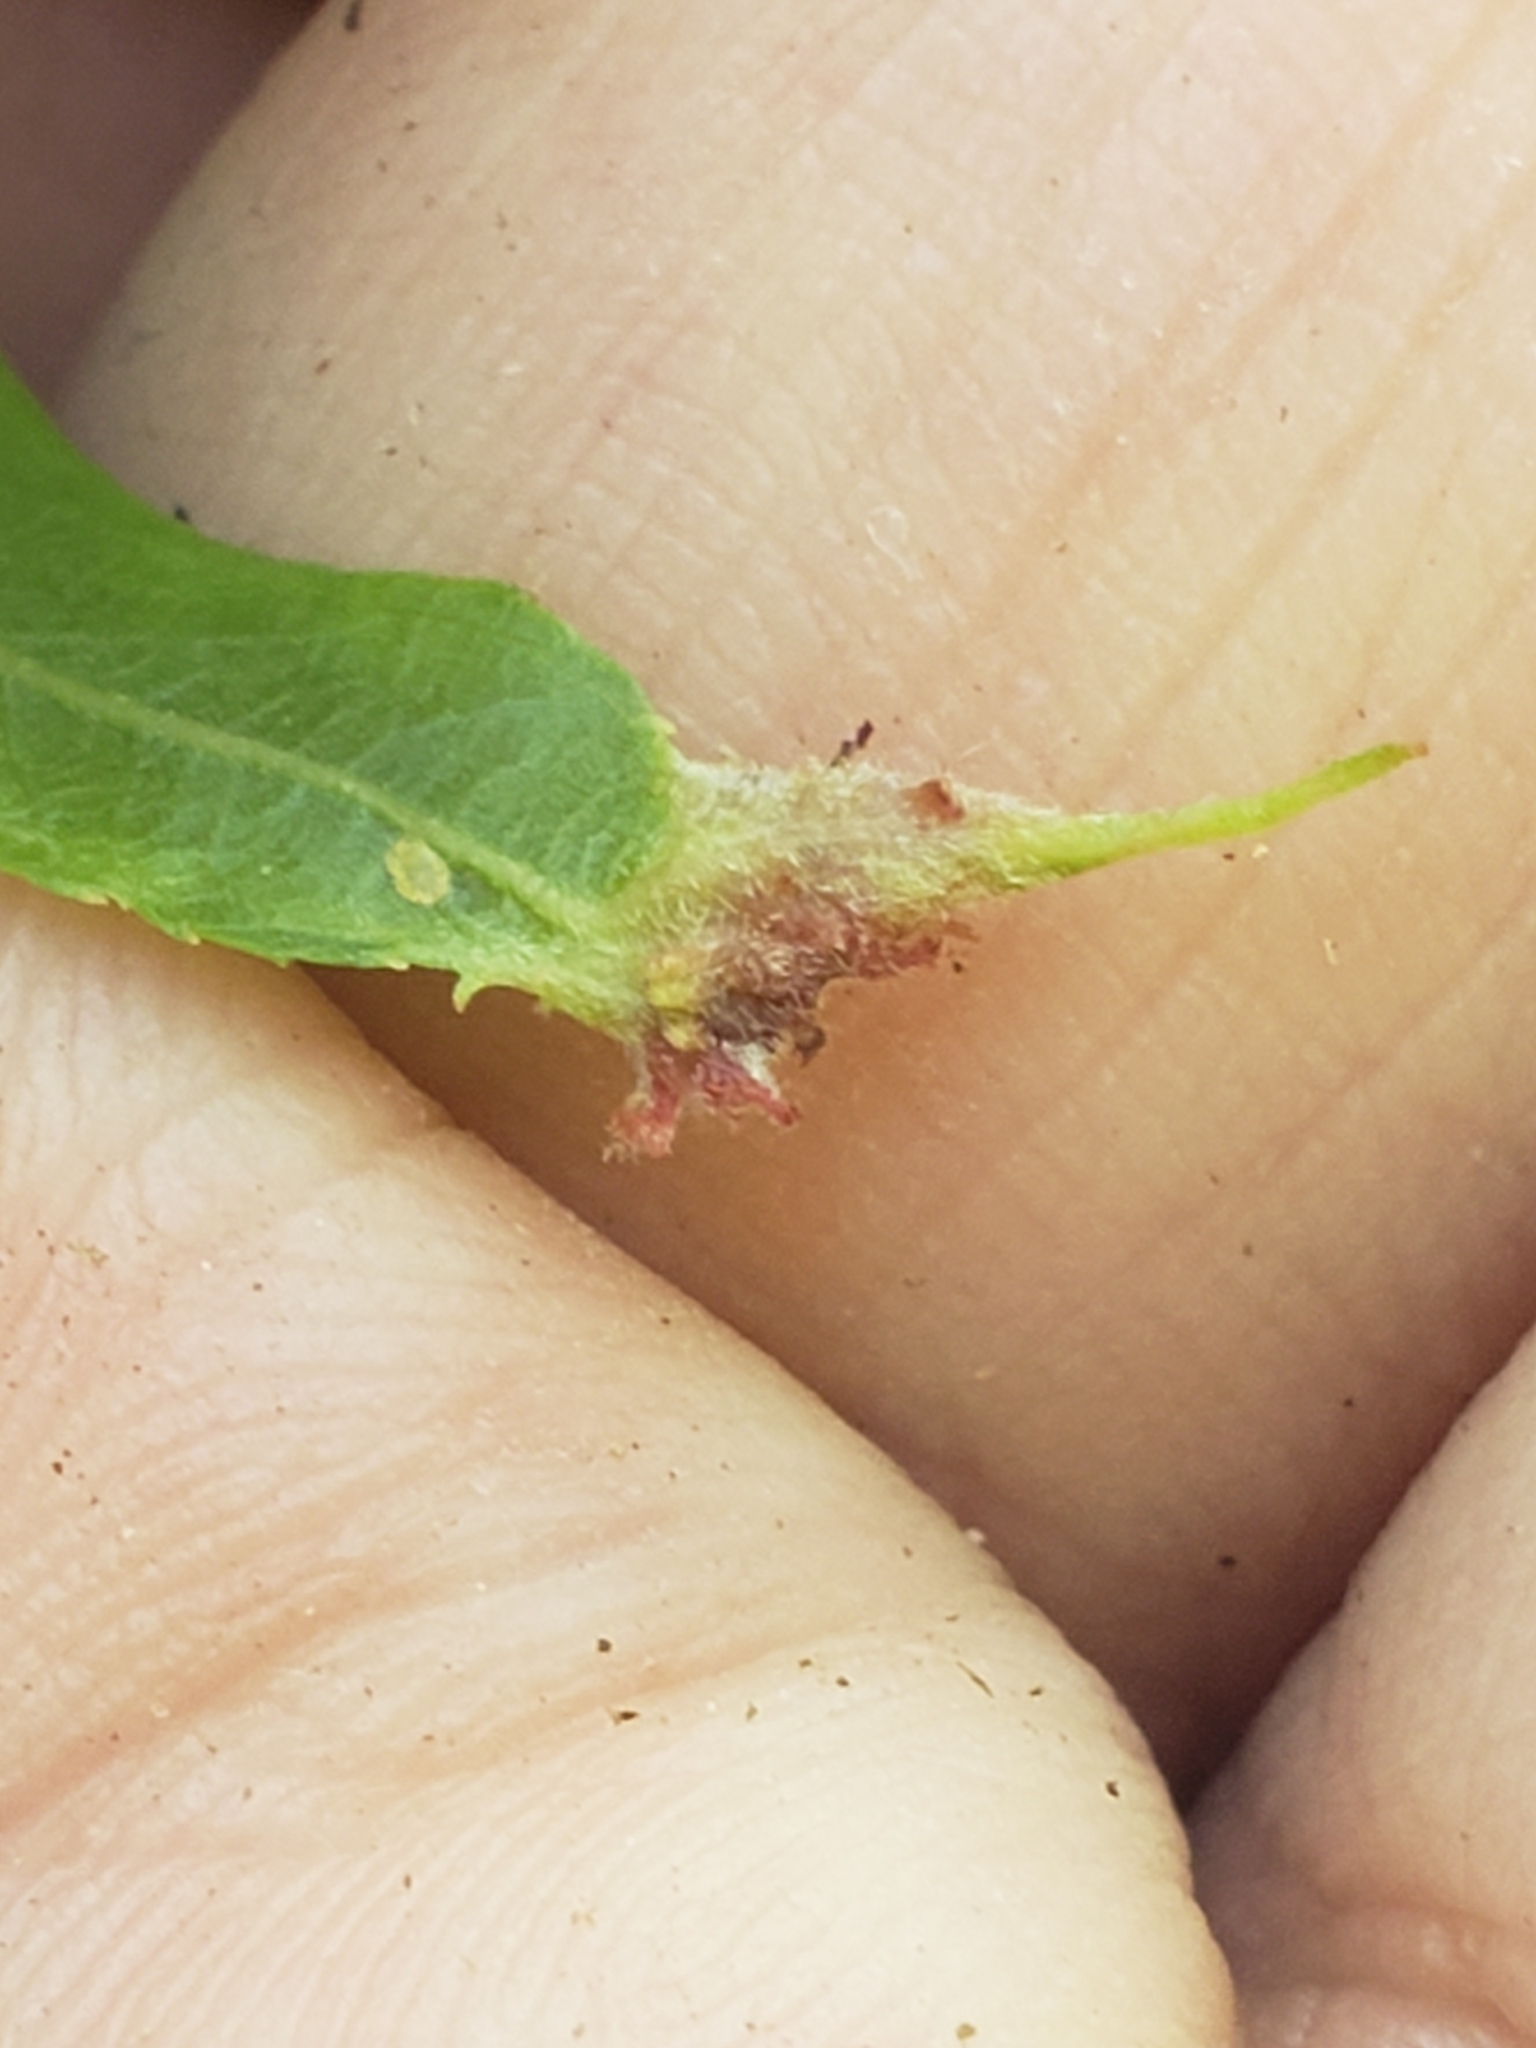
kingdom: Animalia
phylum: Arthropoda
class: Arachnida
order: Trombidiformes
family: Eriophyidae
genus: Aculops
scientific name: Aculops
